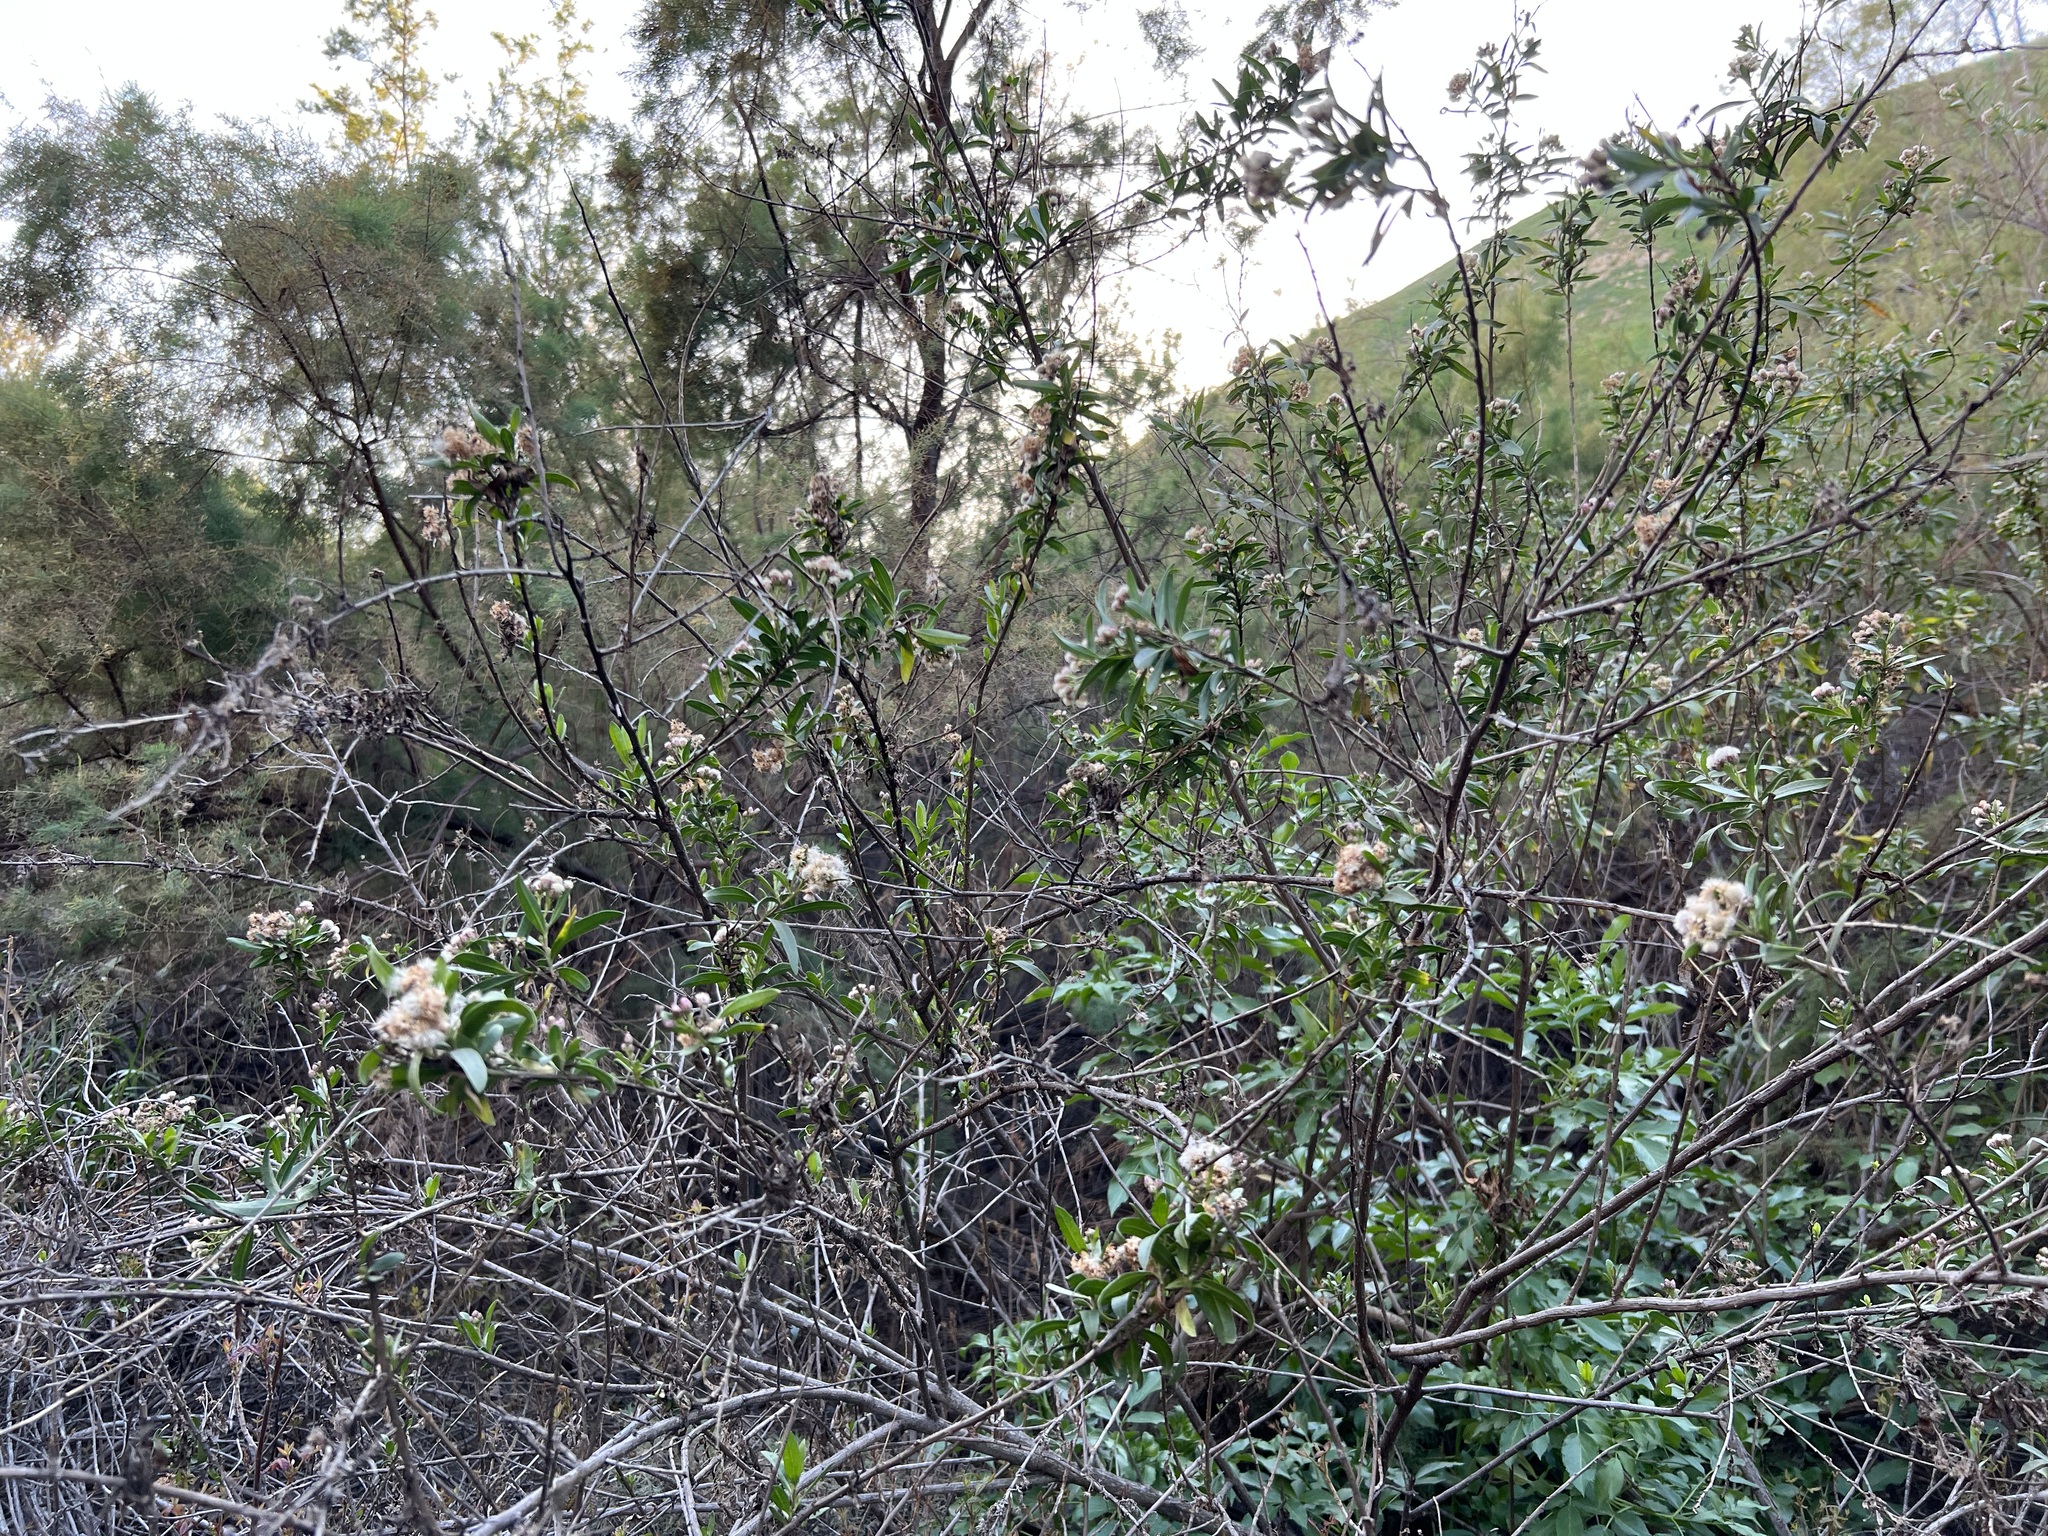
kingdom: Plantae
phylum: Tracheophyta
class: Magnoliopsida
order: Asterales
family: Asteraceae
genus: Baccharis
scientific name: Baccharis salicifolia
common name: Sticky baccharis
